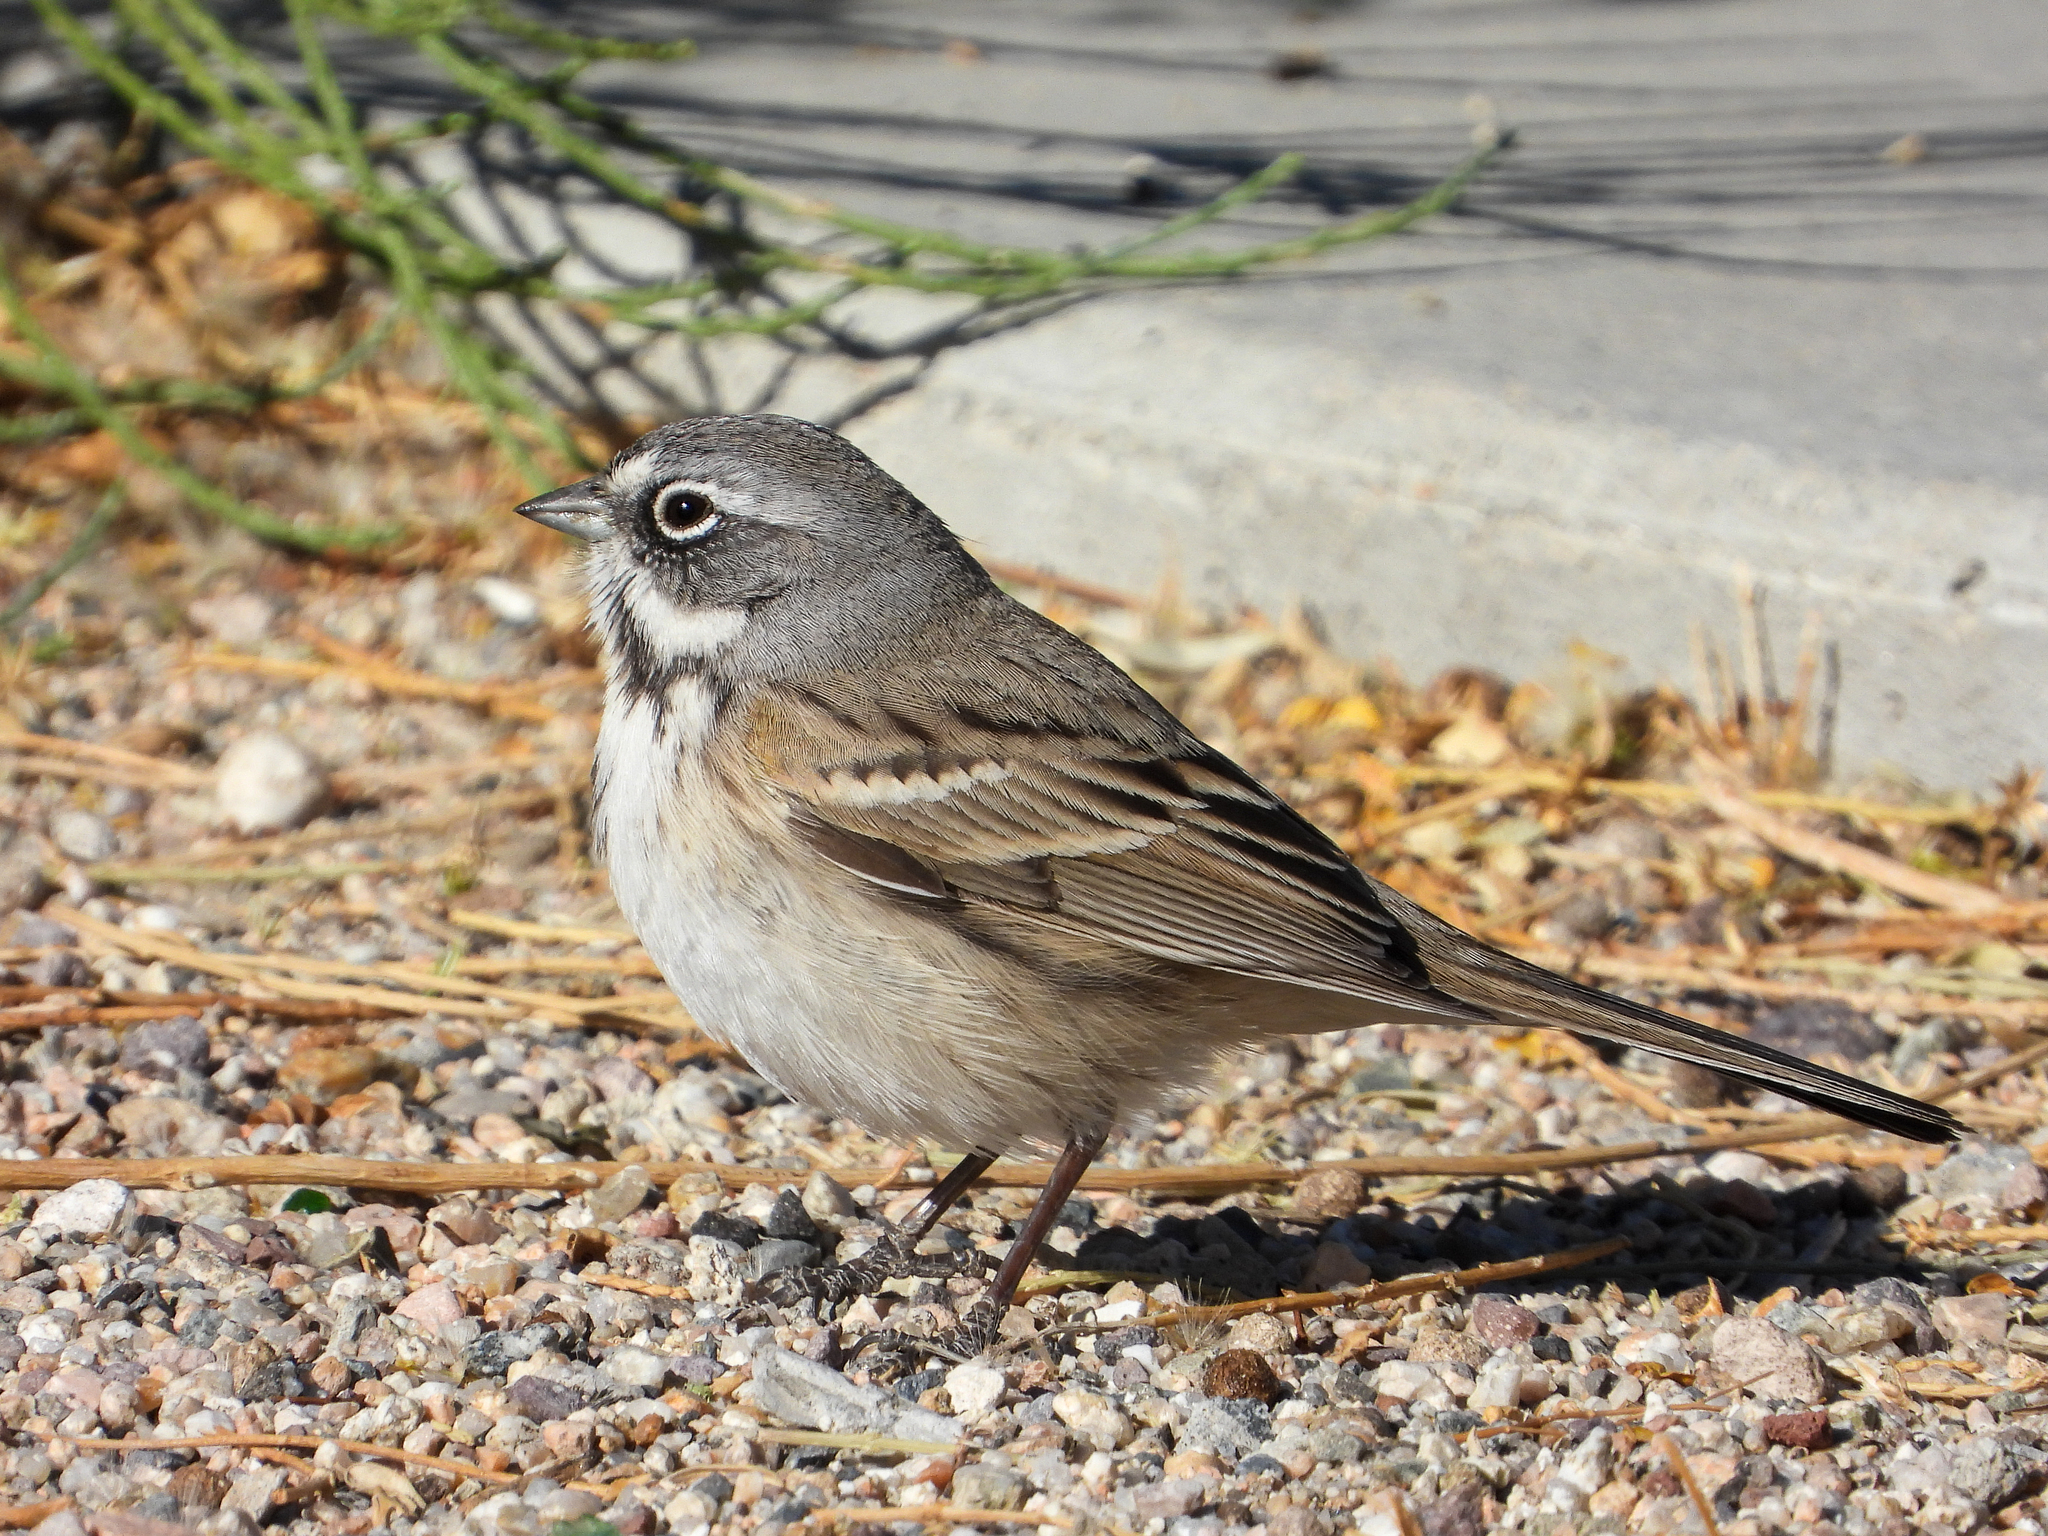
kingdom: Animalia
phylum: Chordata
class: Aves
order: Passeriformes
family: Passerellidae
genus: Artemisiospiza
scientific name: Artemisiospiza belli
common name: Bell's sparrow
